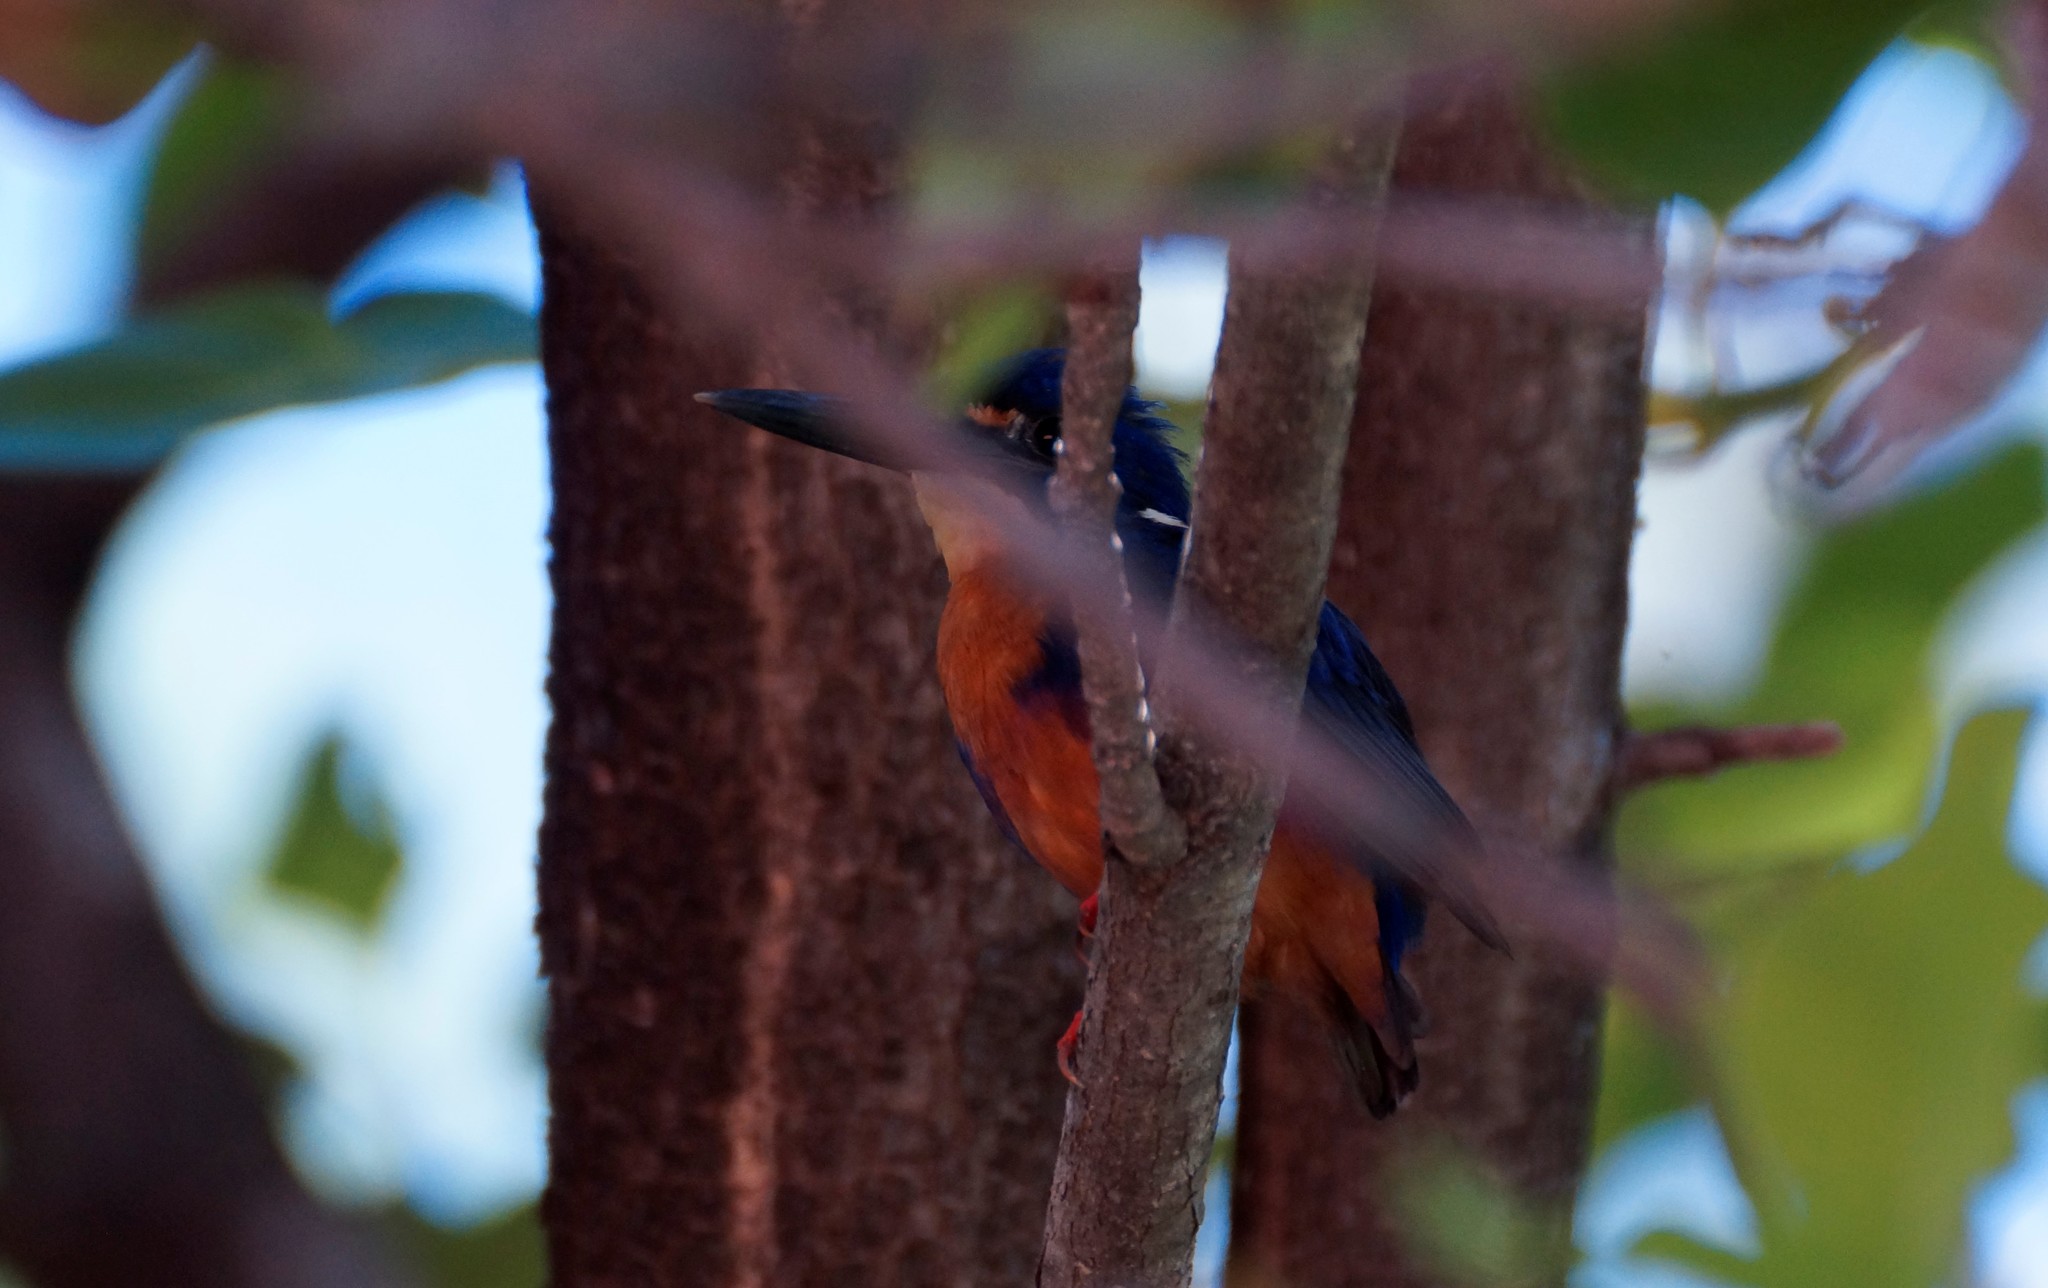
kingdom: Animalia
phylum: Chordata
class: Aves
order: Coraciiformes
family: Alcedinidae
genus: Ceyx
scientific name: Ceyx azureus
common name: Azure kingfisher
